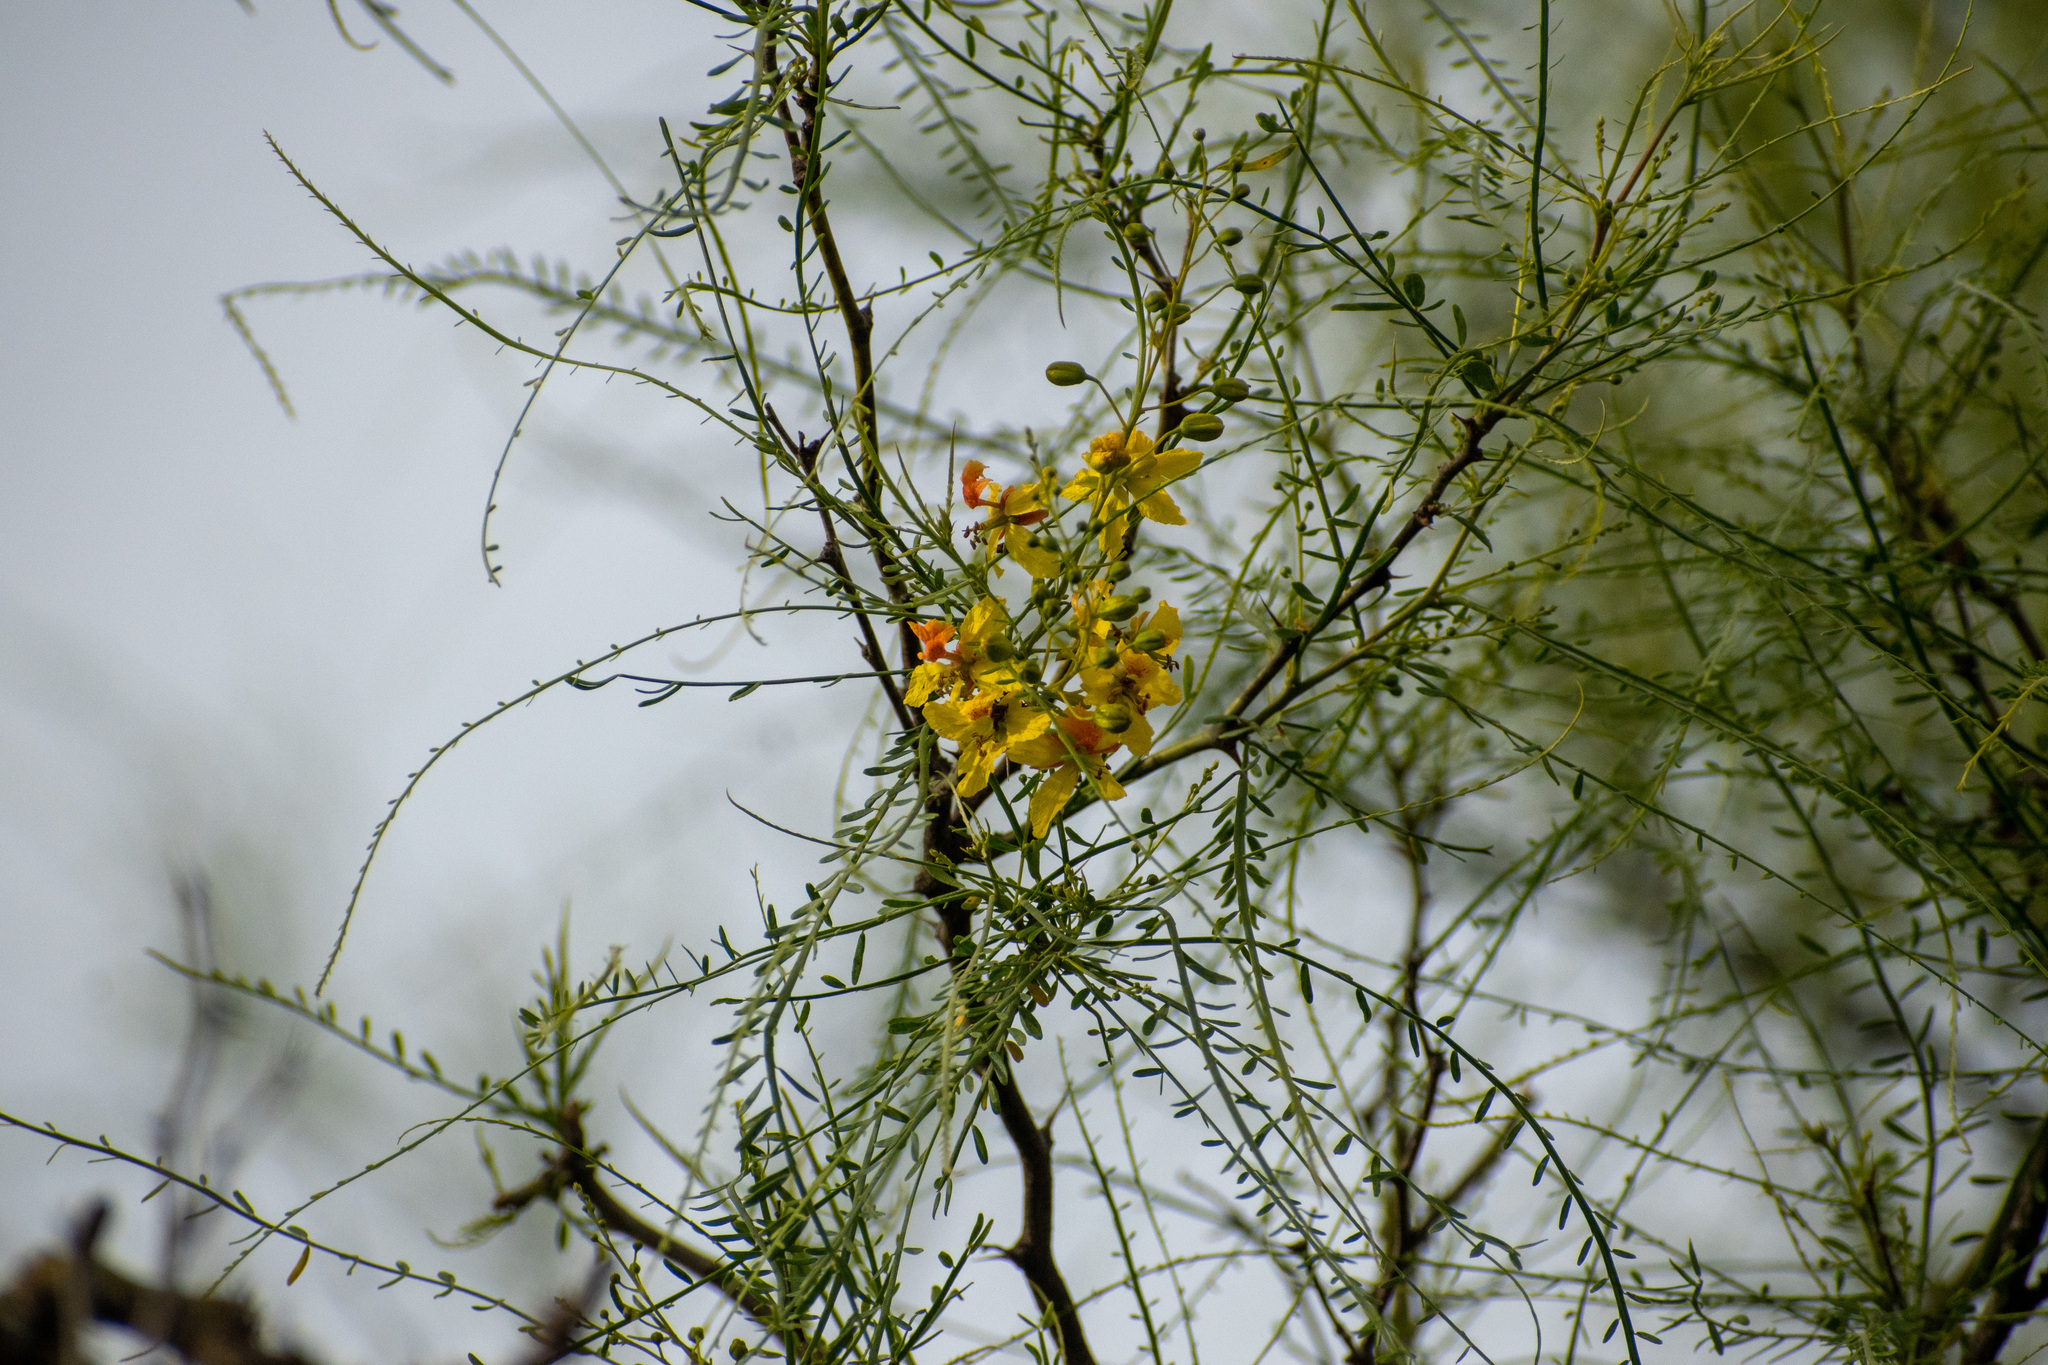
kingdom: Plantae
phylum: Tracheophyta
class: Magnoliopsida
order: Fabales
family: Fabaceae
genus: Parkinsonia
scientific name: Parkinsonia aculeata
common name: Jerusalem thorn
